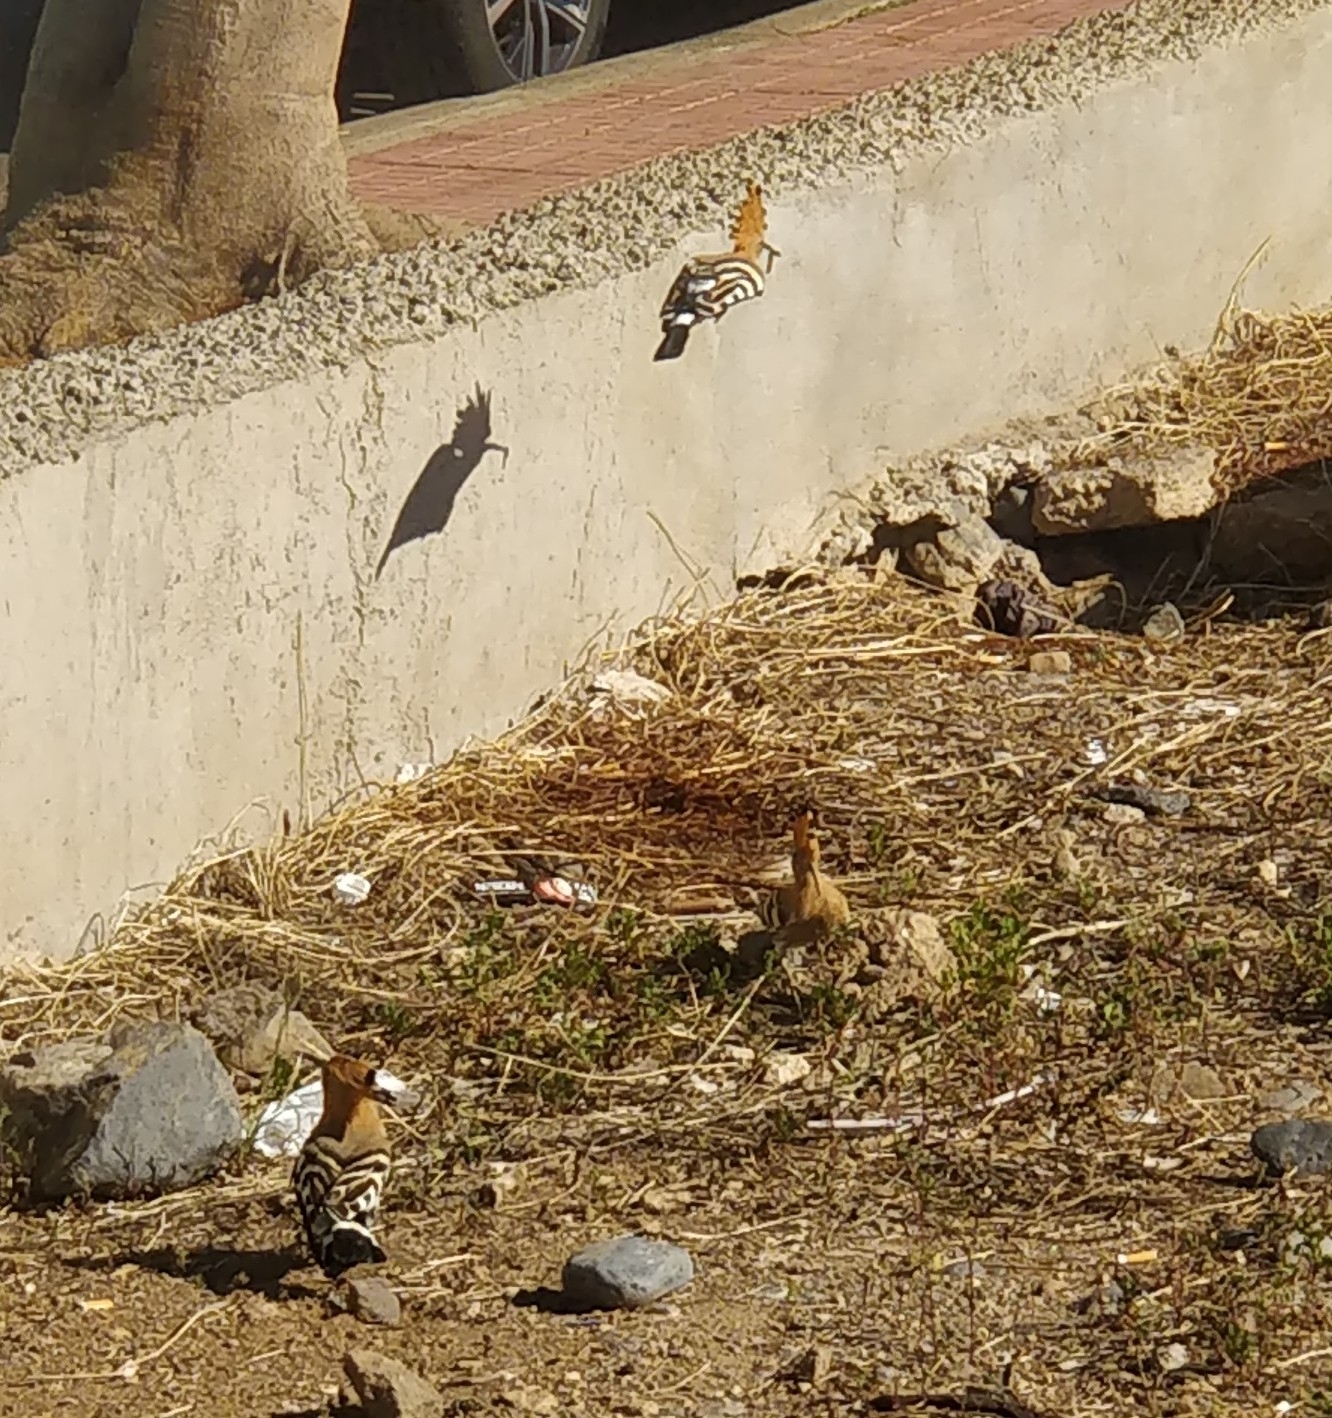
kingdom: Animalia
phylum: Chordata
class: Aves
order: Bucerotiformes
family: Upupidae
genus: Upupa
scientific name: Upupa epops
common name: Eurasian hoopoe
